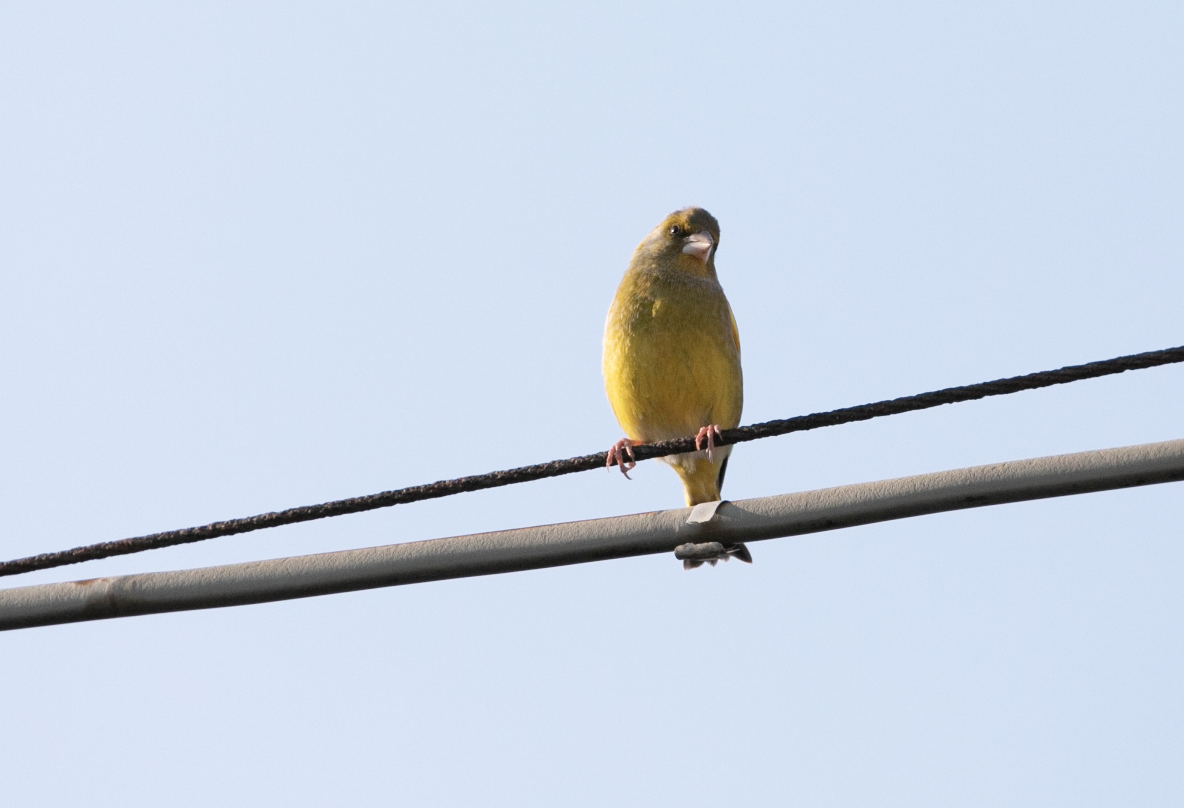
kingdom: Plantae
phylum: Tracheophyta
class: Liliopsida
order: Poales
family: Poaceae
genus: Chloris
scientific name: Chloris chloris
